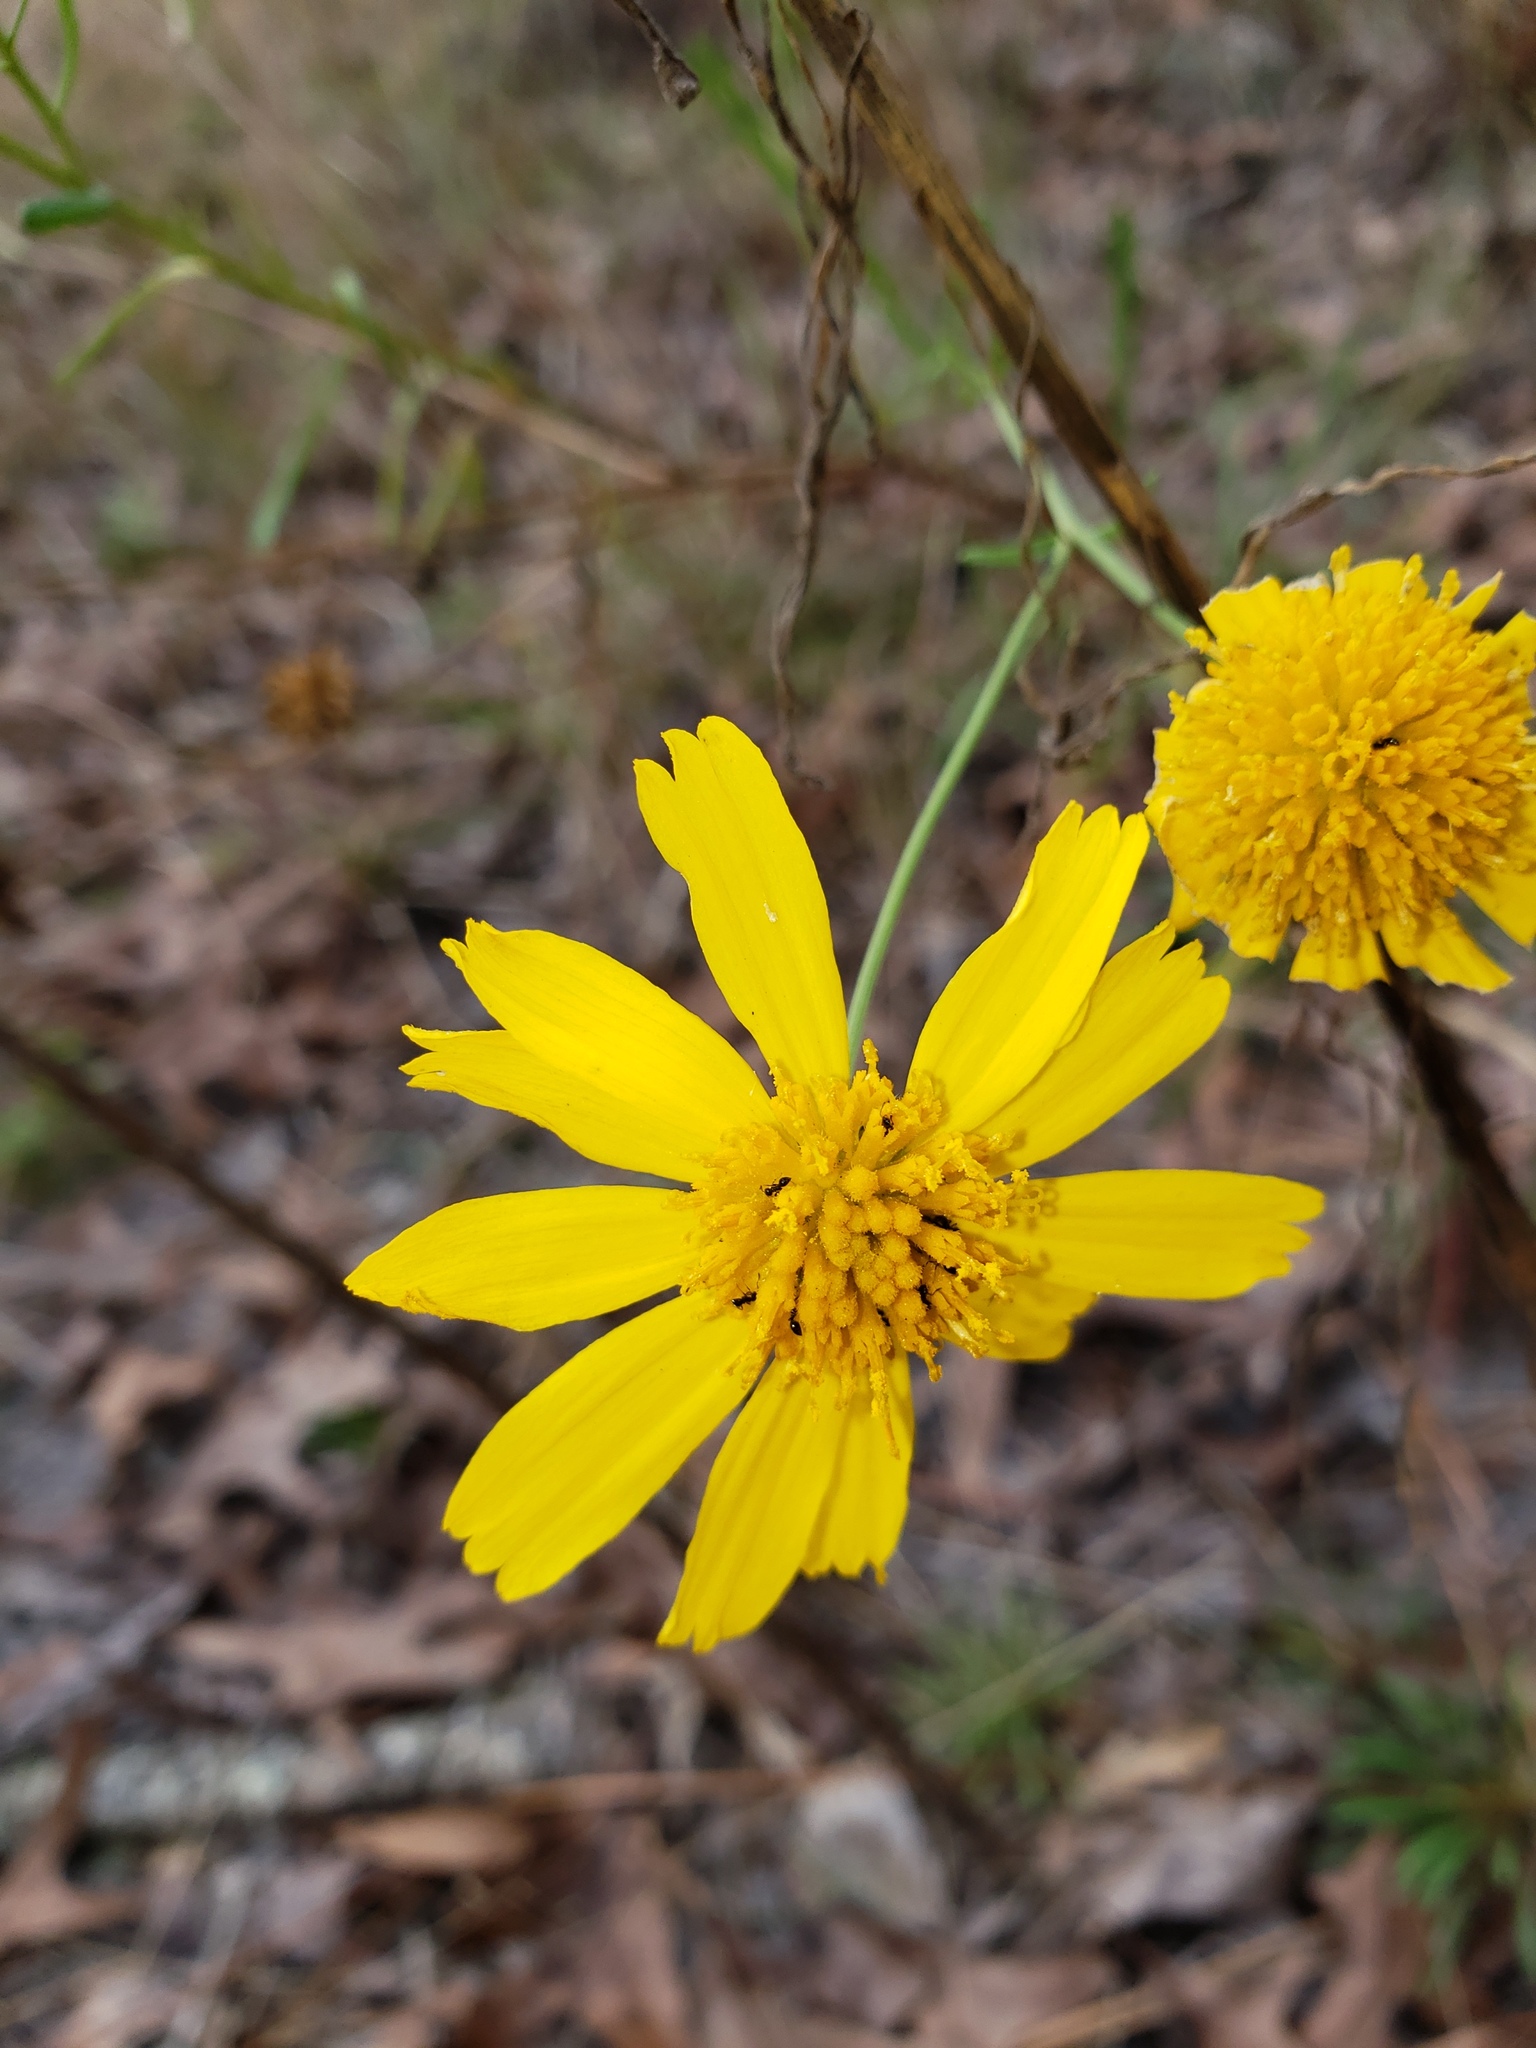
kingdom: Plantae
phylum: Tracheophyta
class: Magnoliopsida
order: Asterales
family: Asteraceae
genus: Balduina
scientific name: Balduina angustifolia
